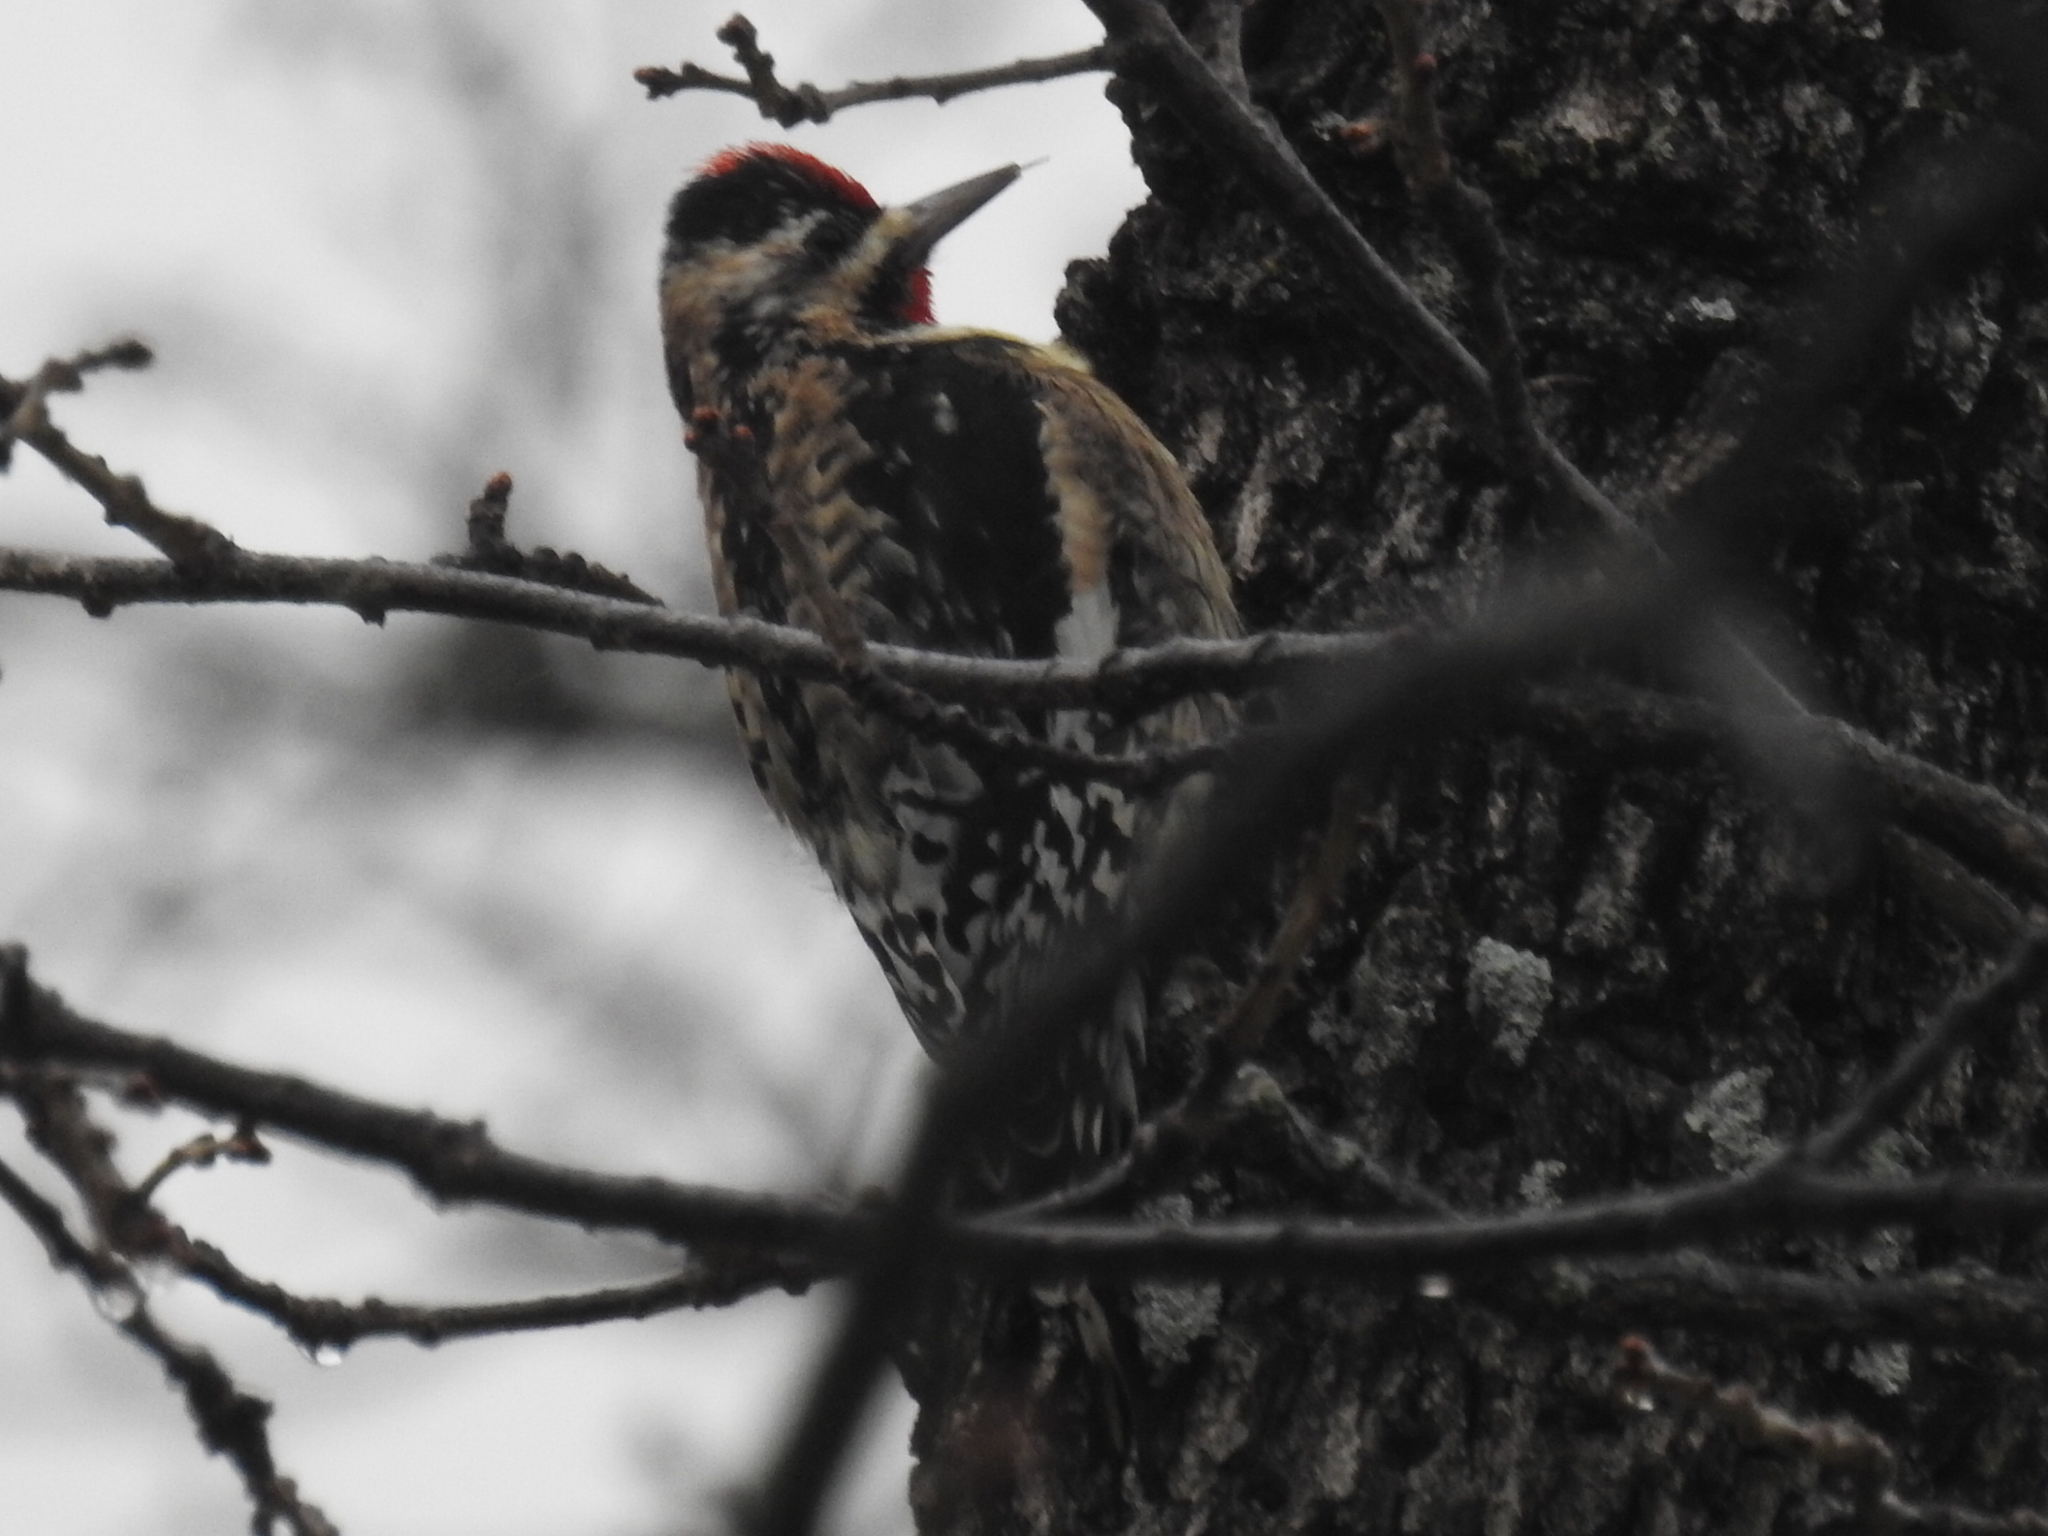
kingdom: Animalia
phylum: Chordata
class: Aves
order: Piciformes
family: Picidae
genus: Sphyrapicus
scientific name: Sphyrapicus varius
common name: Yellow-bellied sapsucker
